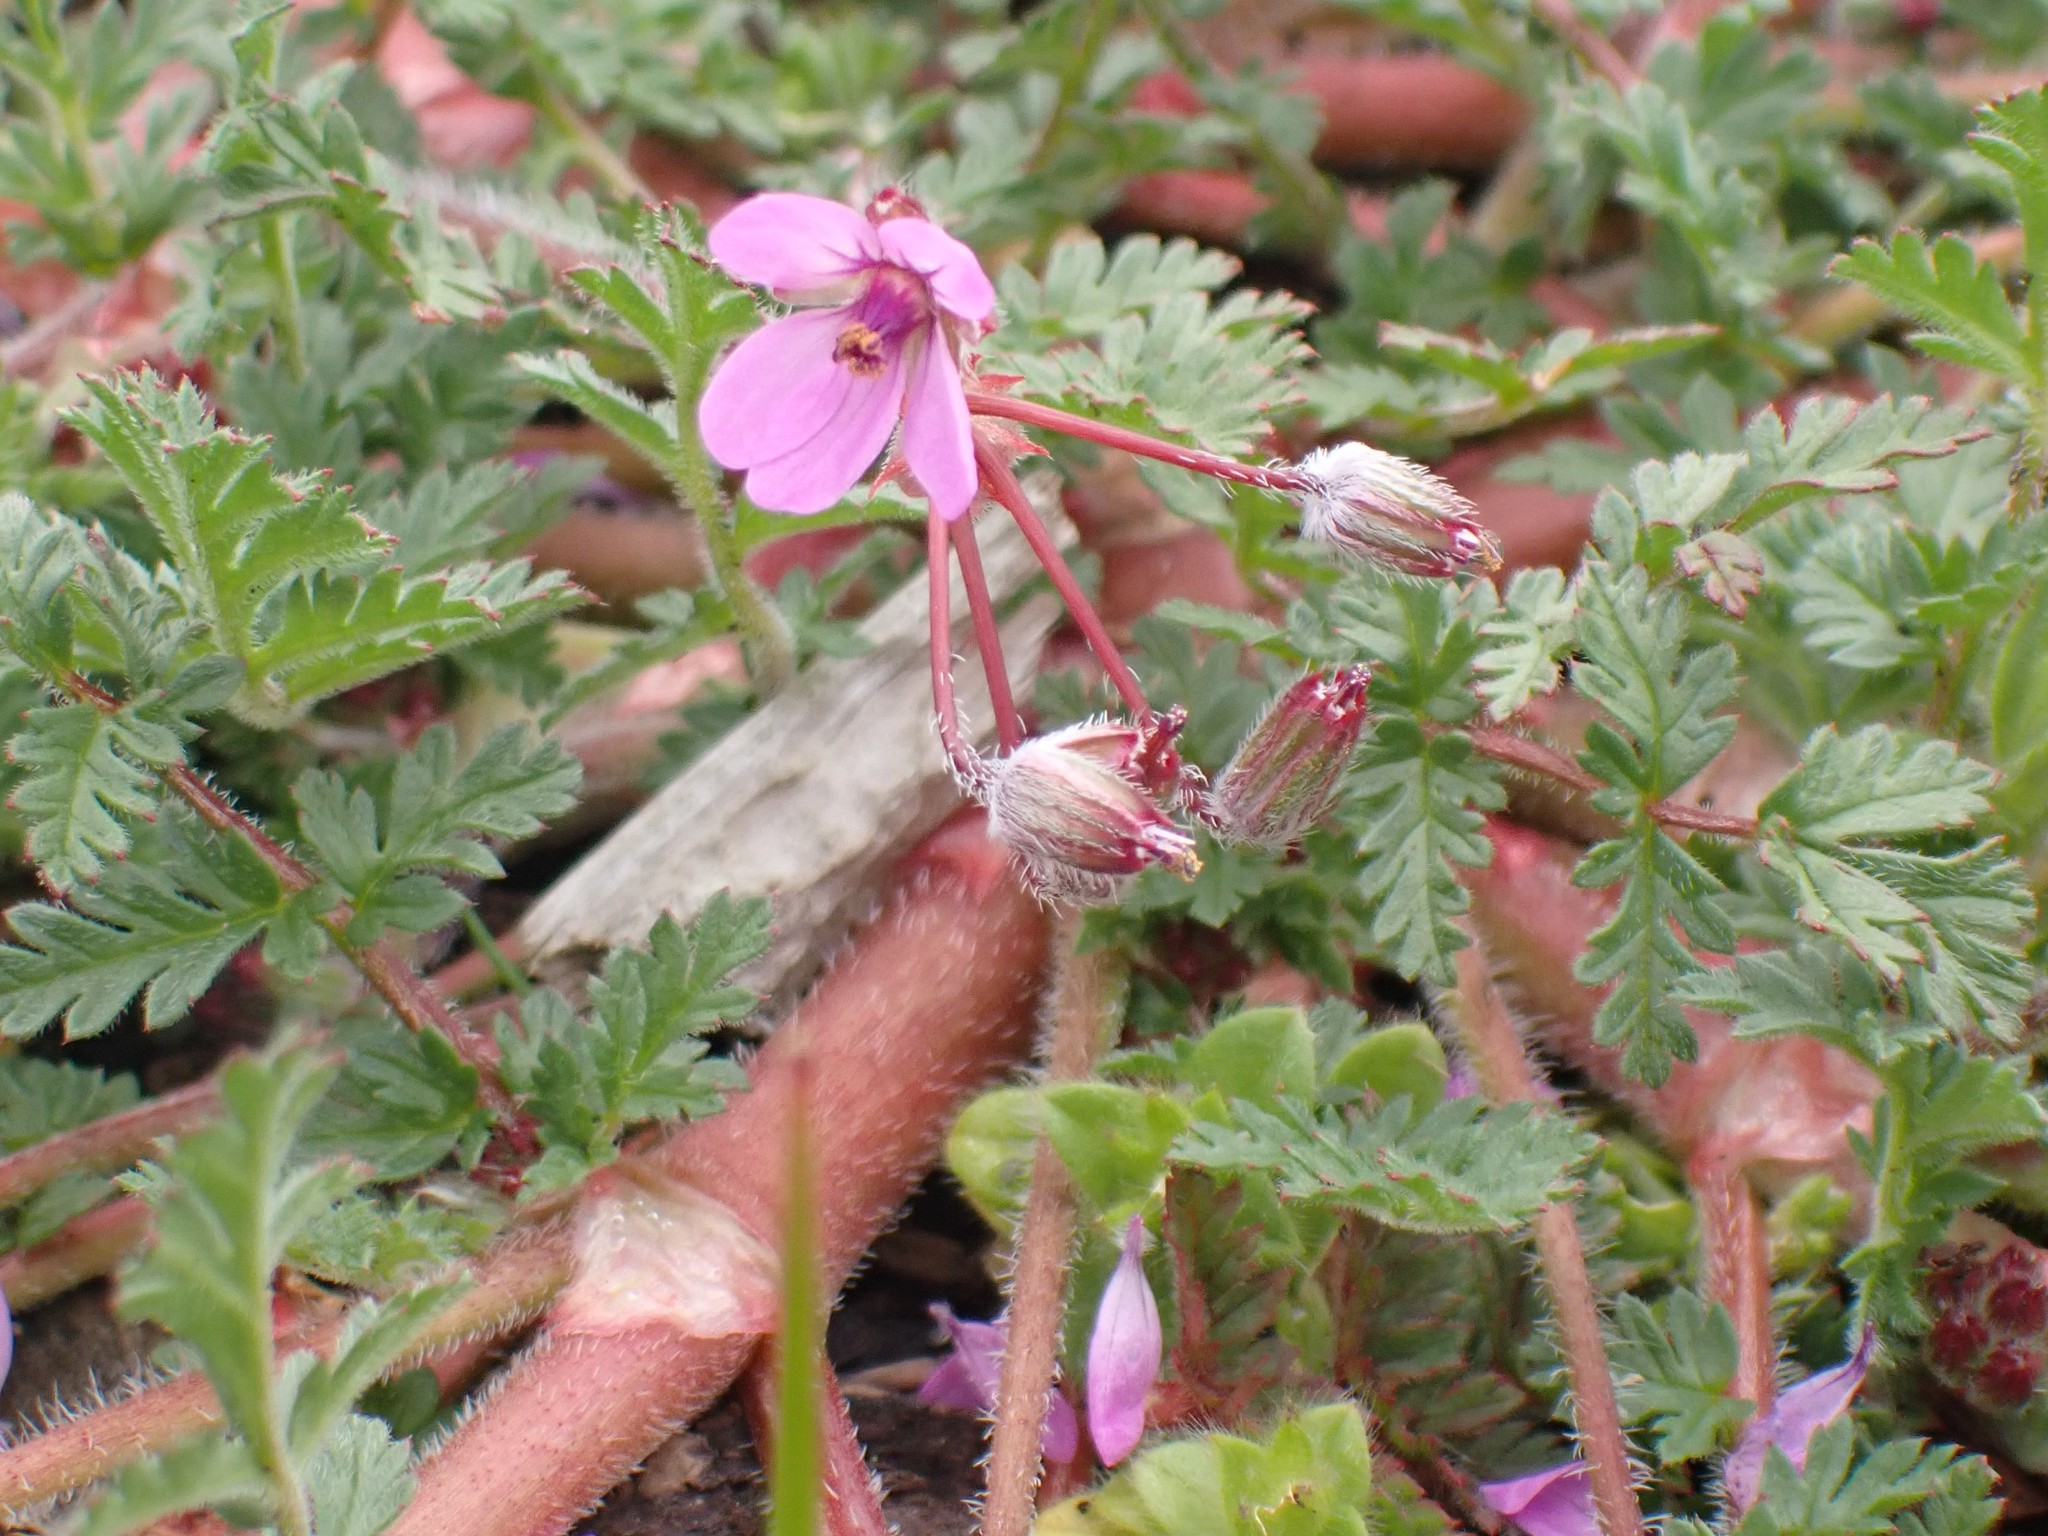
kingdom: Plantae
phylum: Tracheophyta
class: Magnoliopsida
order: Geraniales
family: Geraniaceae
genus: Erodium
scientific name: Erodium cicutarium
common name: Common stork's-bill
